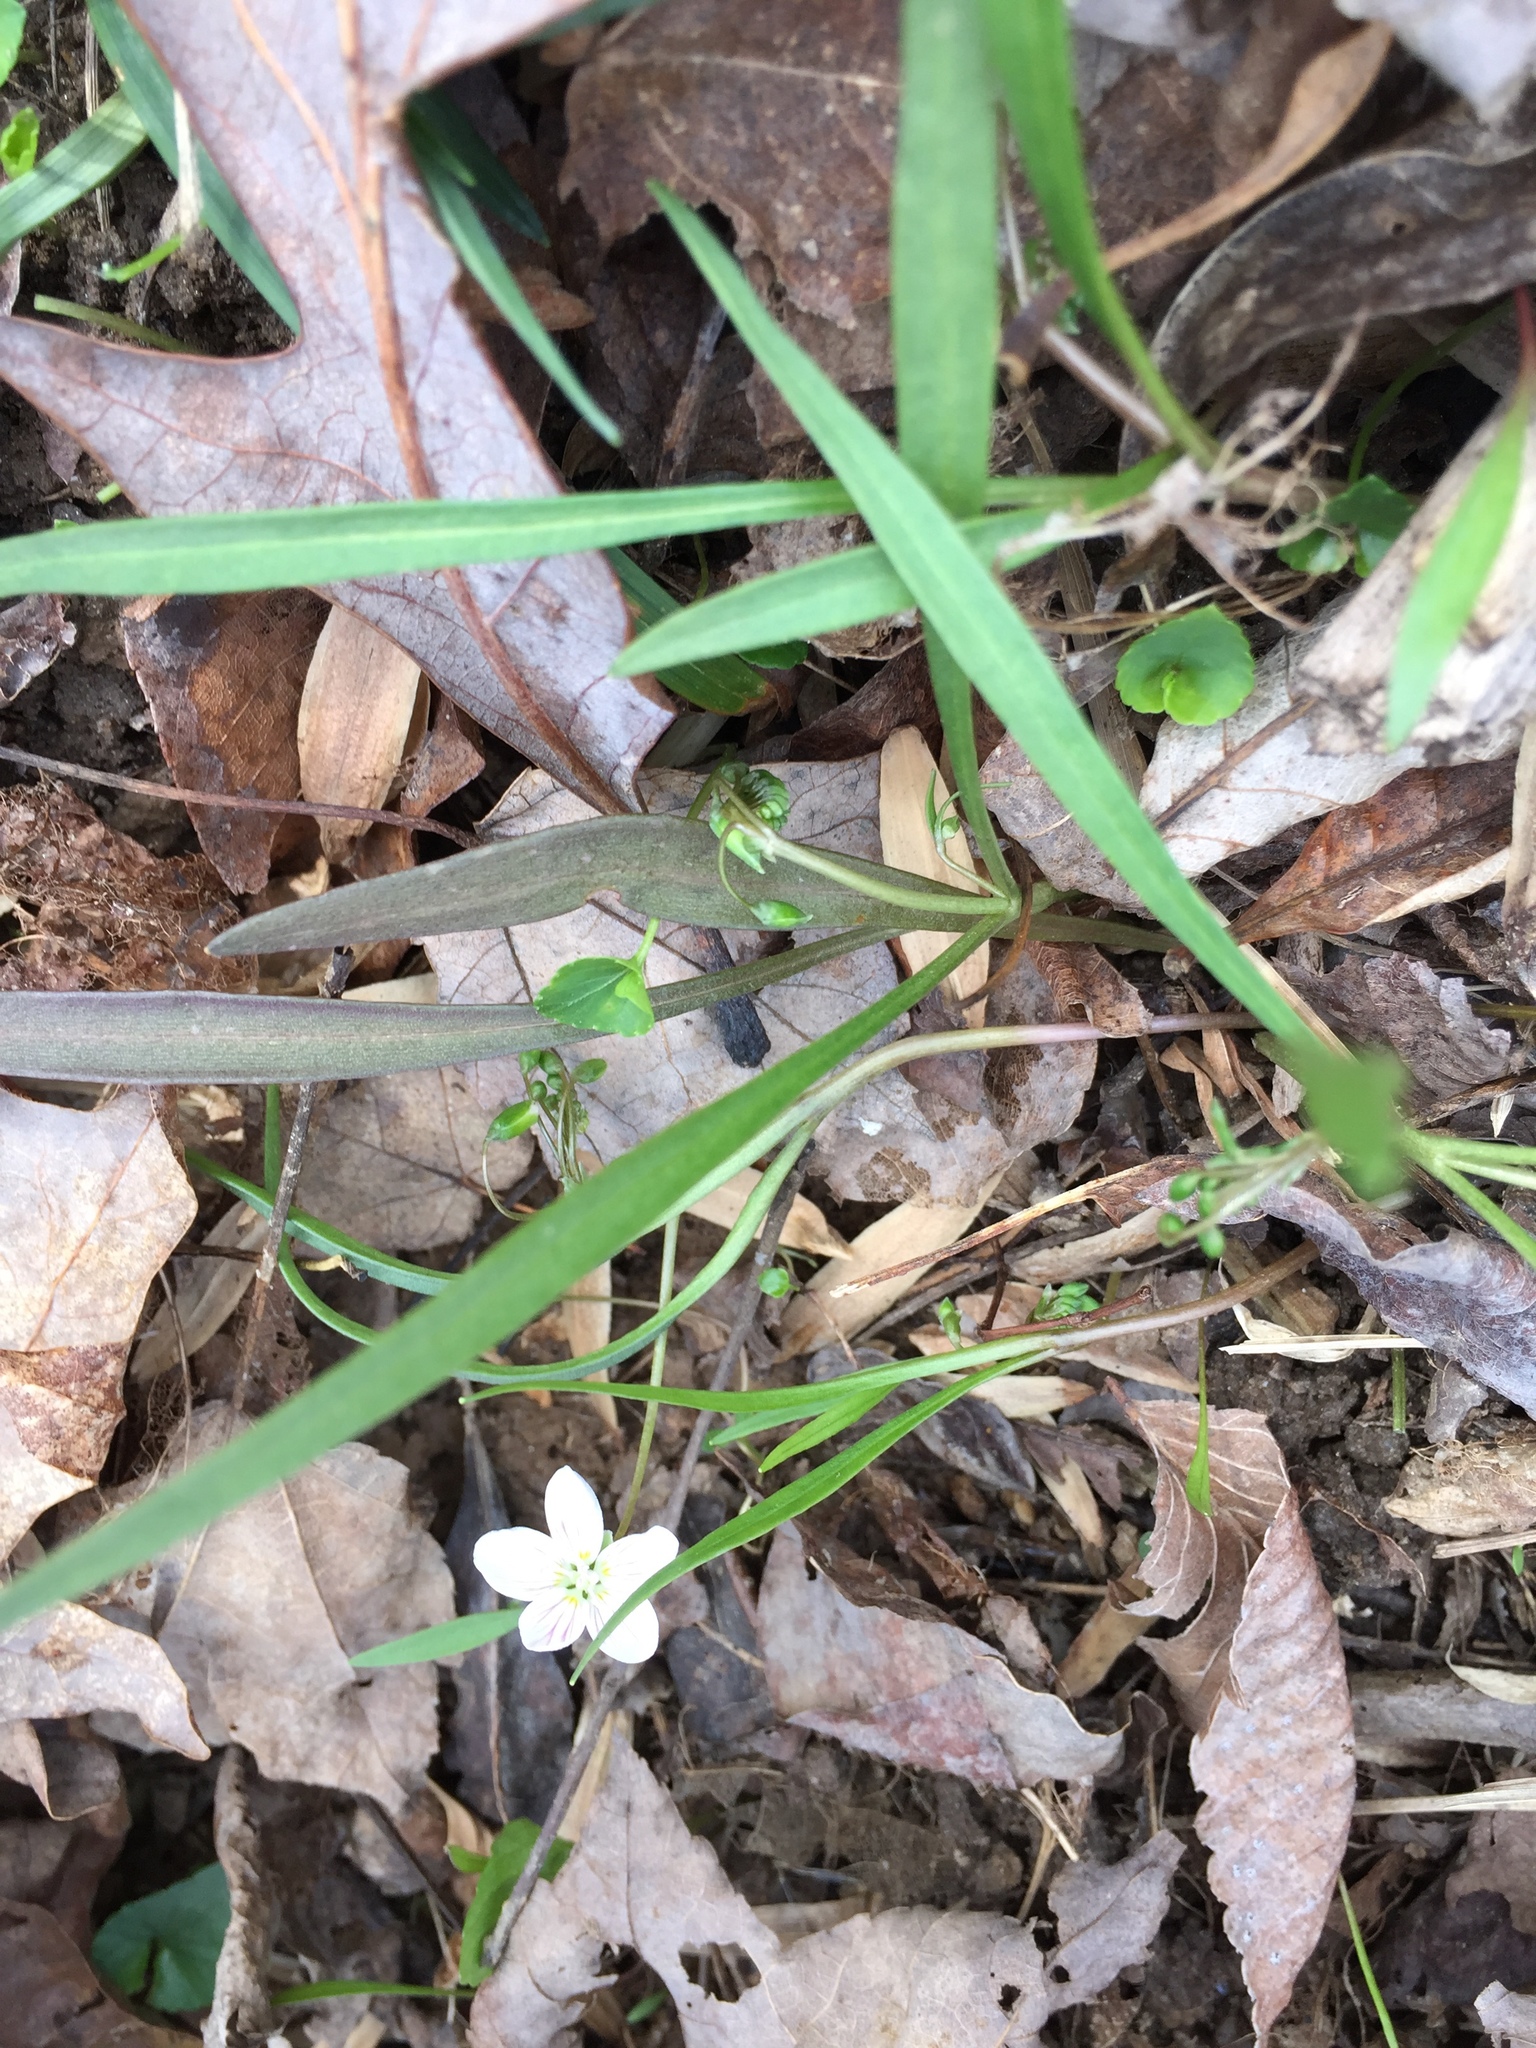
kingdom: Plantae
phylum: Tracheophyta
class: Magnoliopsida
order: Caryophyllales
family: Montiaceae
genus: Claytonia
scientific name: Claytonia virginica
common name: Virginia springbeauty
